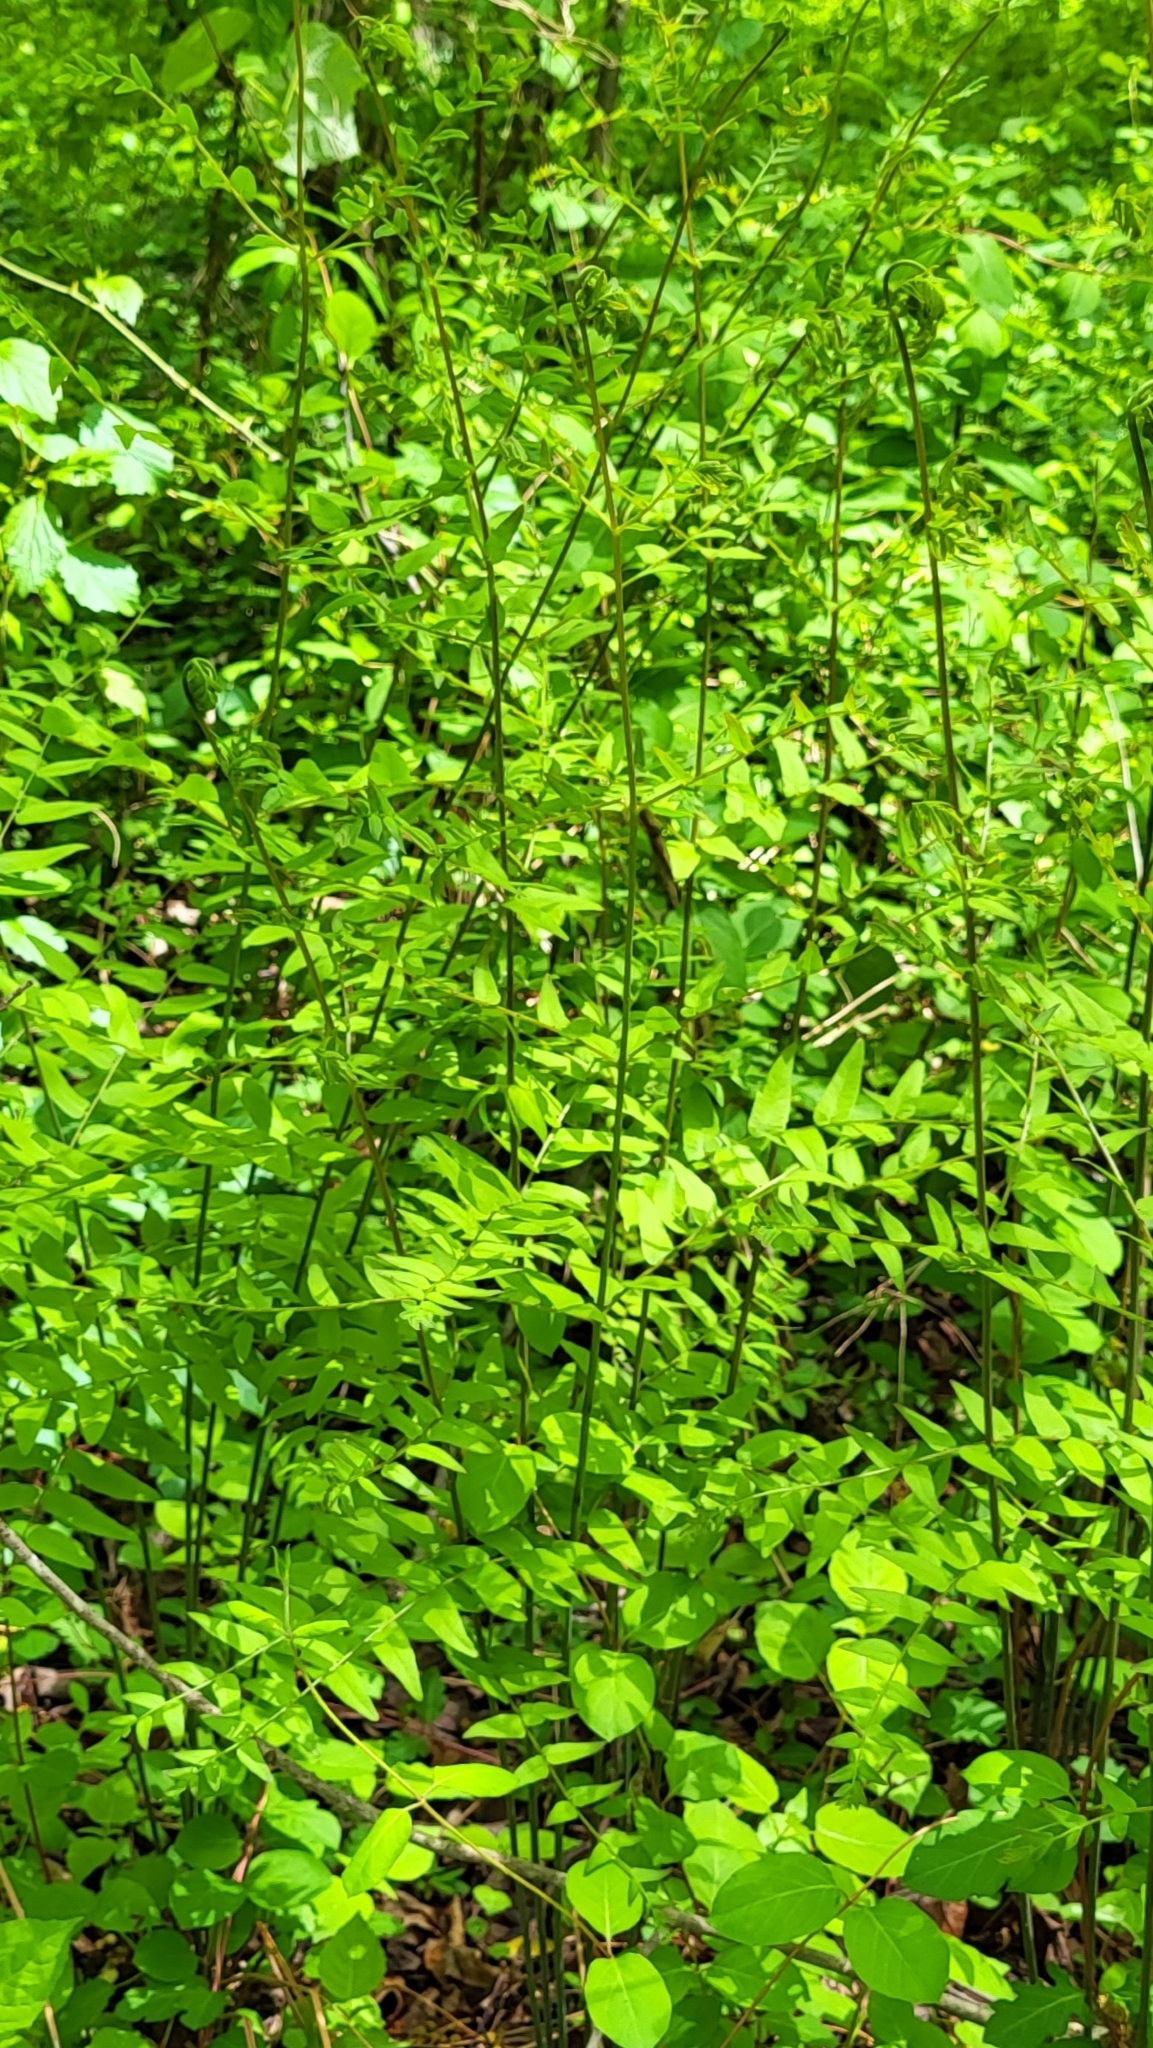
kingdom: Plantae
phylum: Tracheophyta
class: Polypodiopsida
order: Osmundales
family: Osmundaceae
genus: Osmunda
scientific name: Osmunda spectabilis
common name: American royal fern
